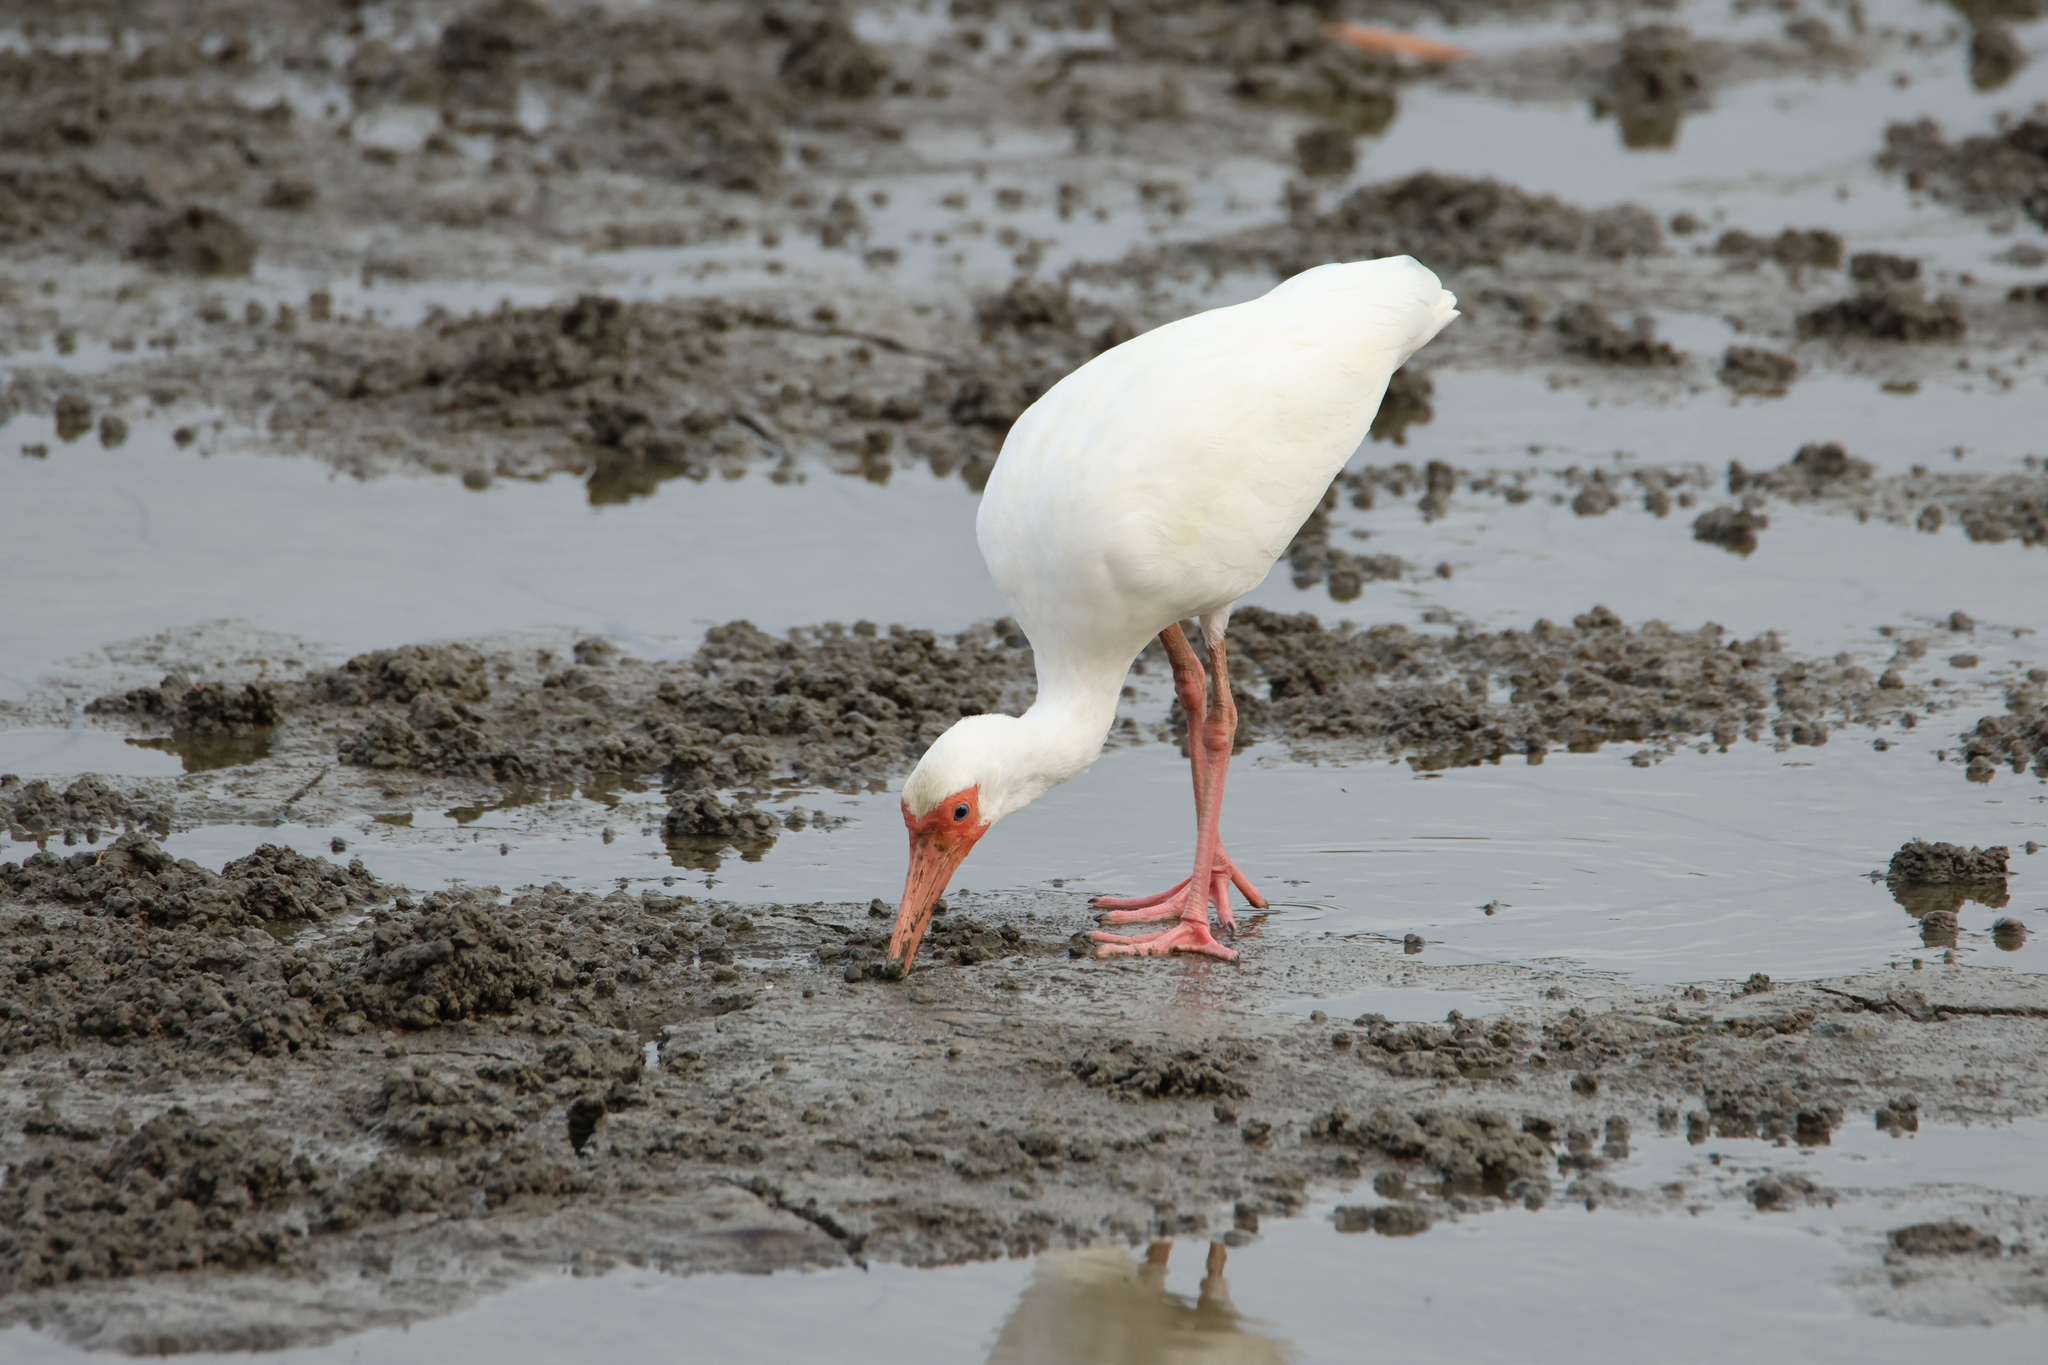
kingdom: Animalia
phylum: Chordata
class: Aves
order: Pelecaniformes
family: Threskiornithidae
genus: Eudocimus
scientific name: Eudocimus albus
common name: White ibis
